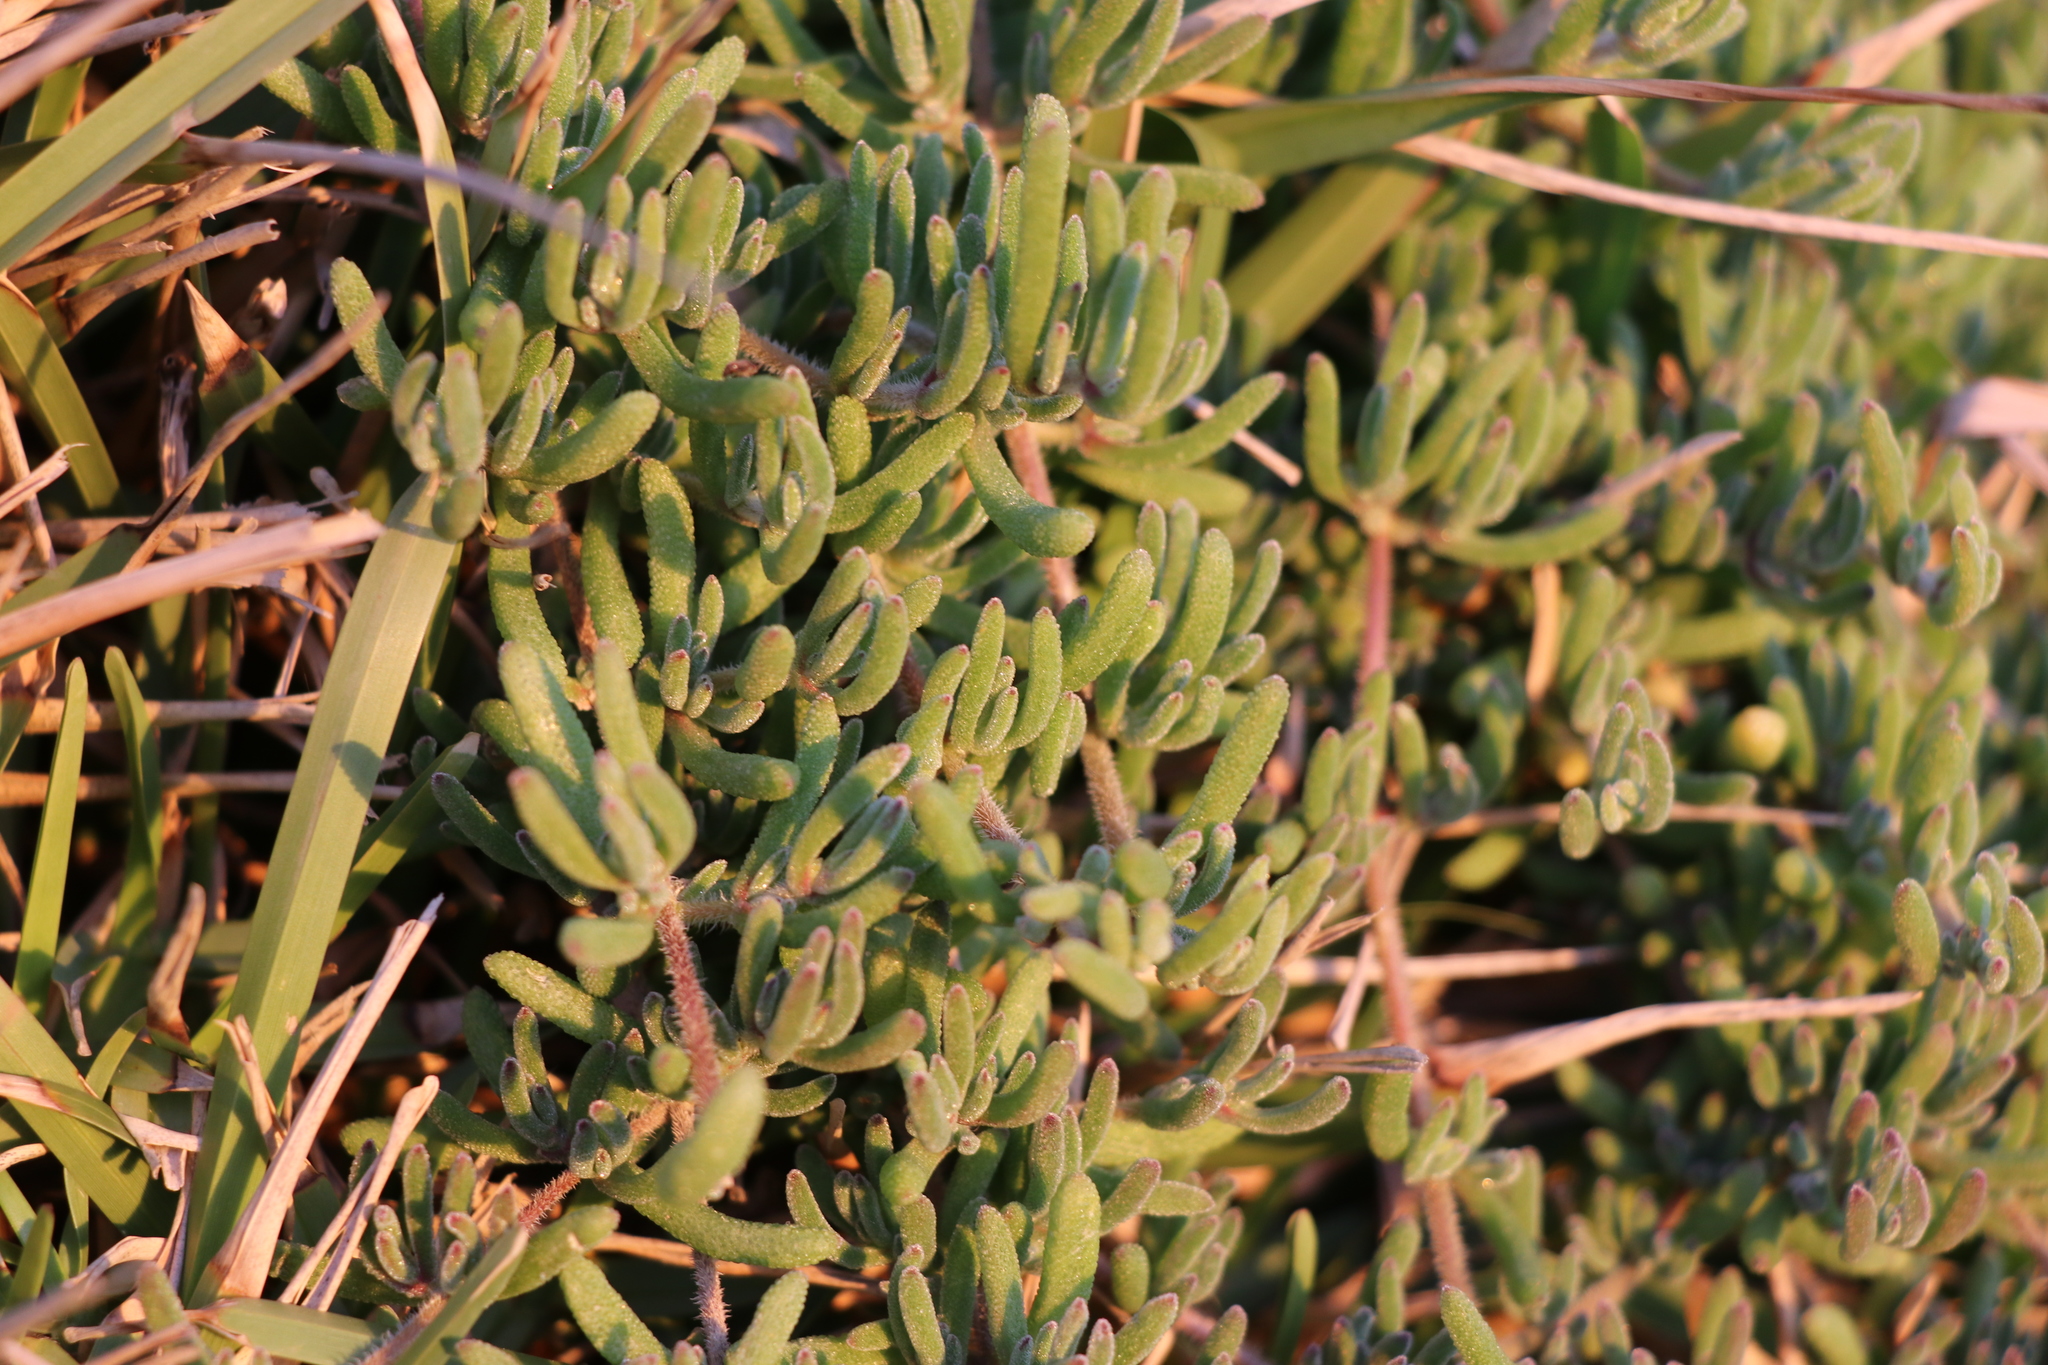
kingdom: Plantae
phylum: Tracheophyta
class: Magnoliopsida
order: Caryophyllales
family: Aizoaceae
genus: Drosanthemum
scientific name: Drosanthemum floribundum
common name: Pale dewplant
